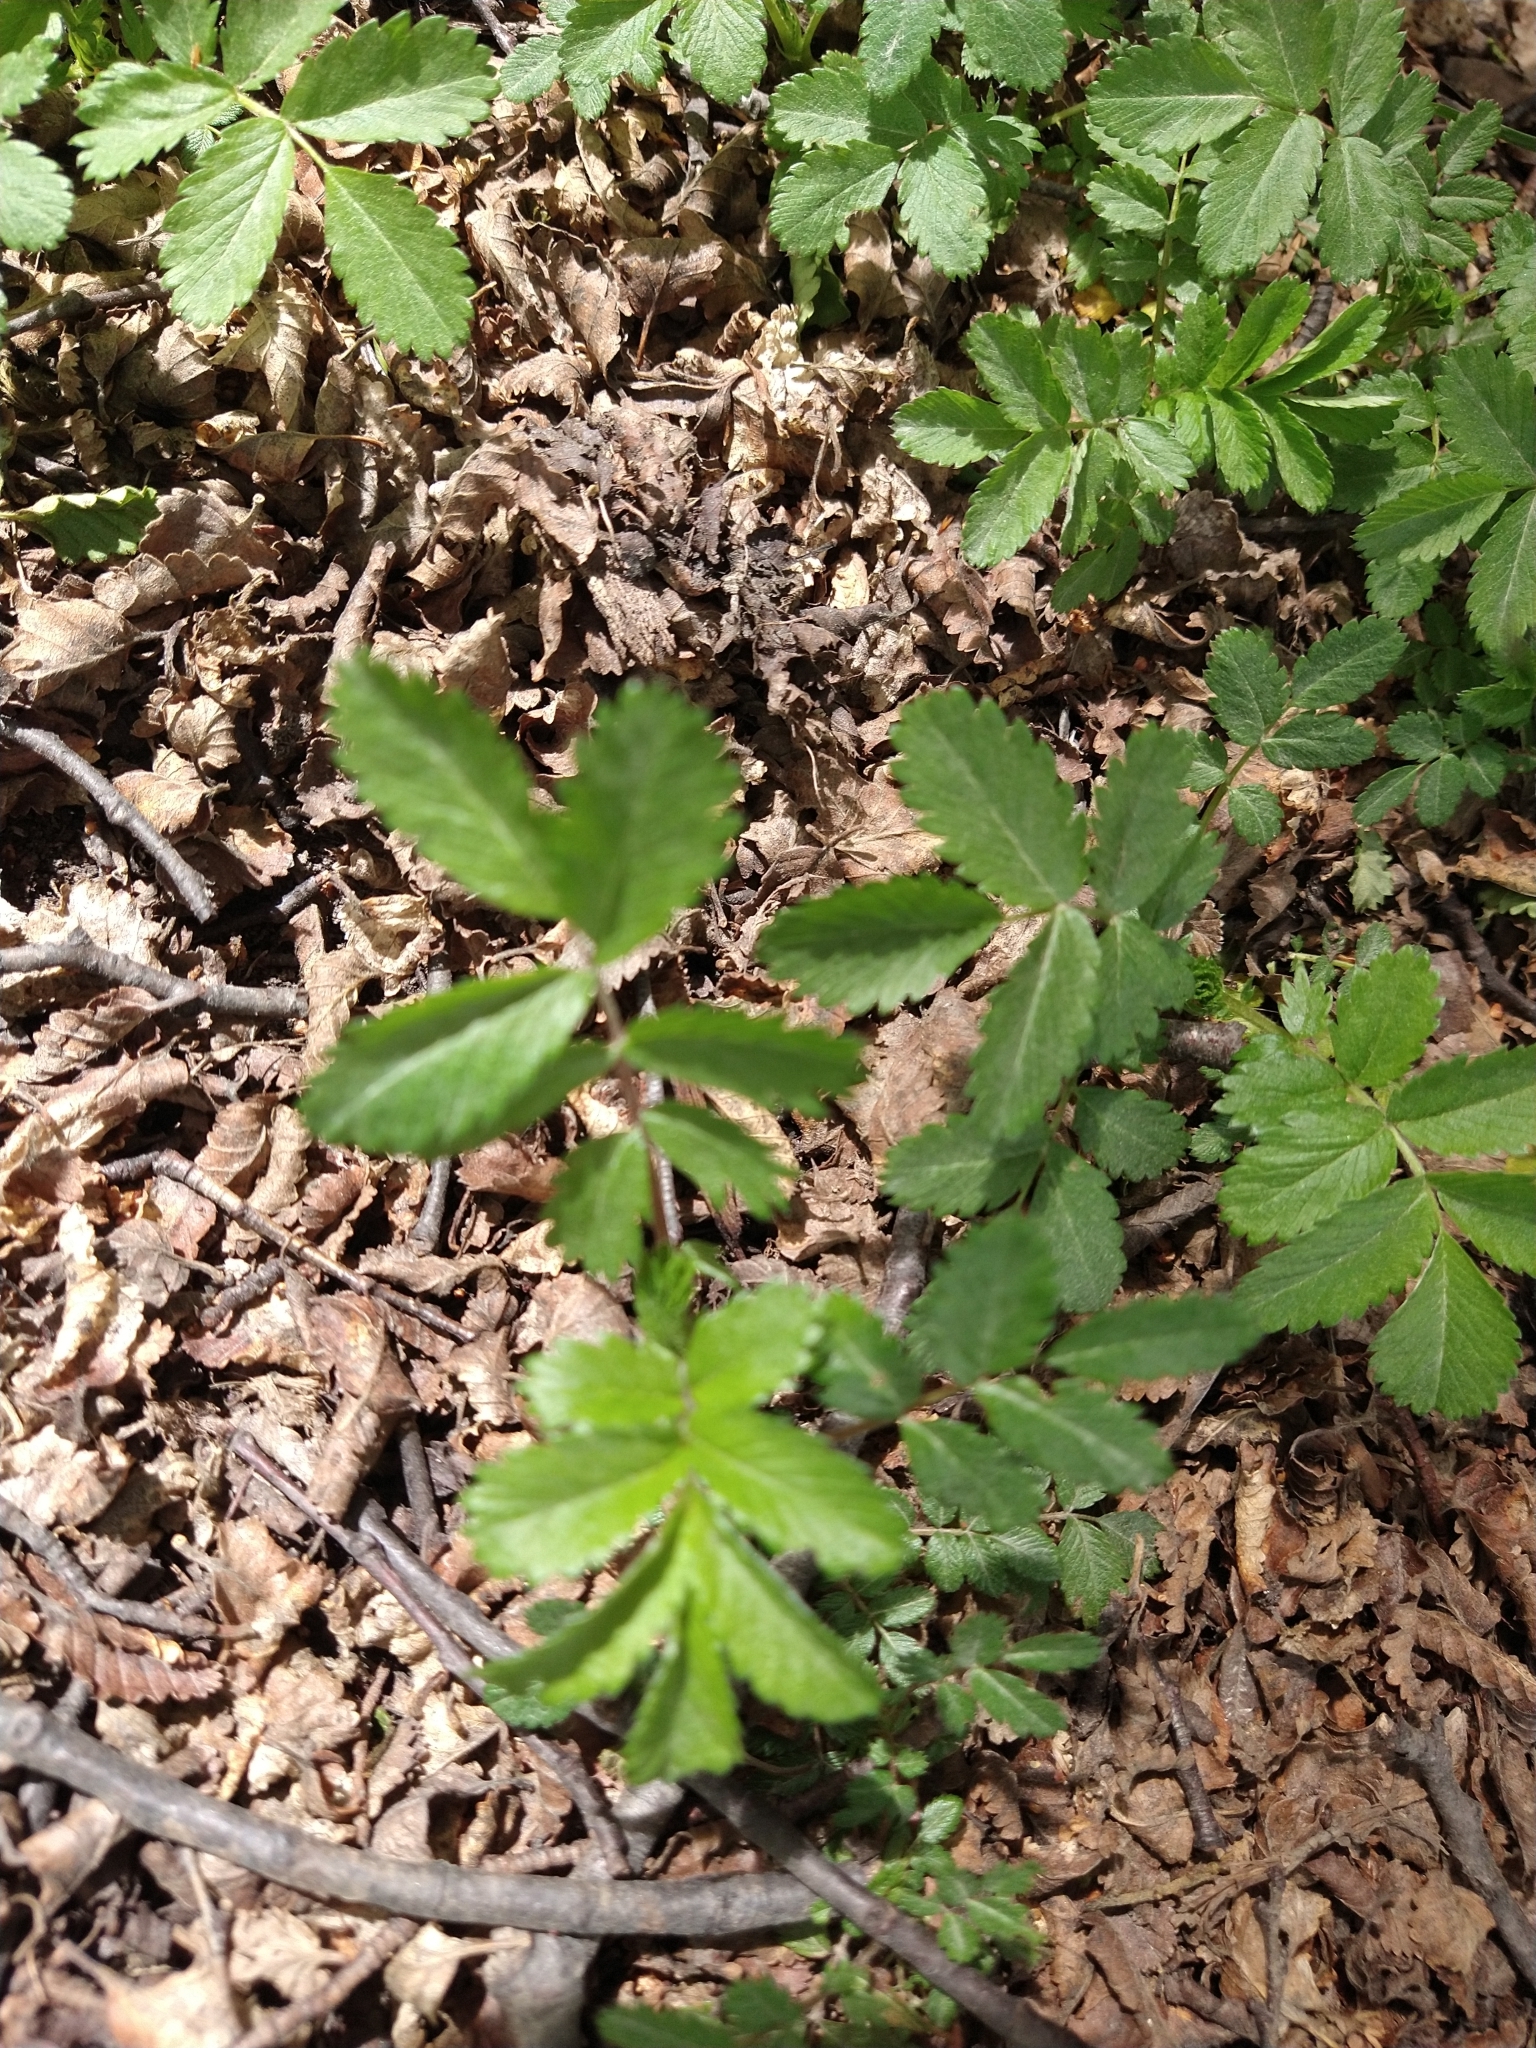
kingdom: Plantae
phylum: Tracheophyta
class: Magnoliopsida
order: Rosales
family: Rosaceae
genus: Acaena
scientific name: Acaena ovalifolia
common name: Two-spined acaena
